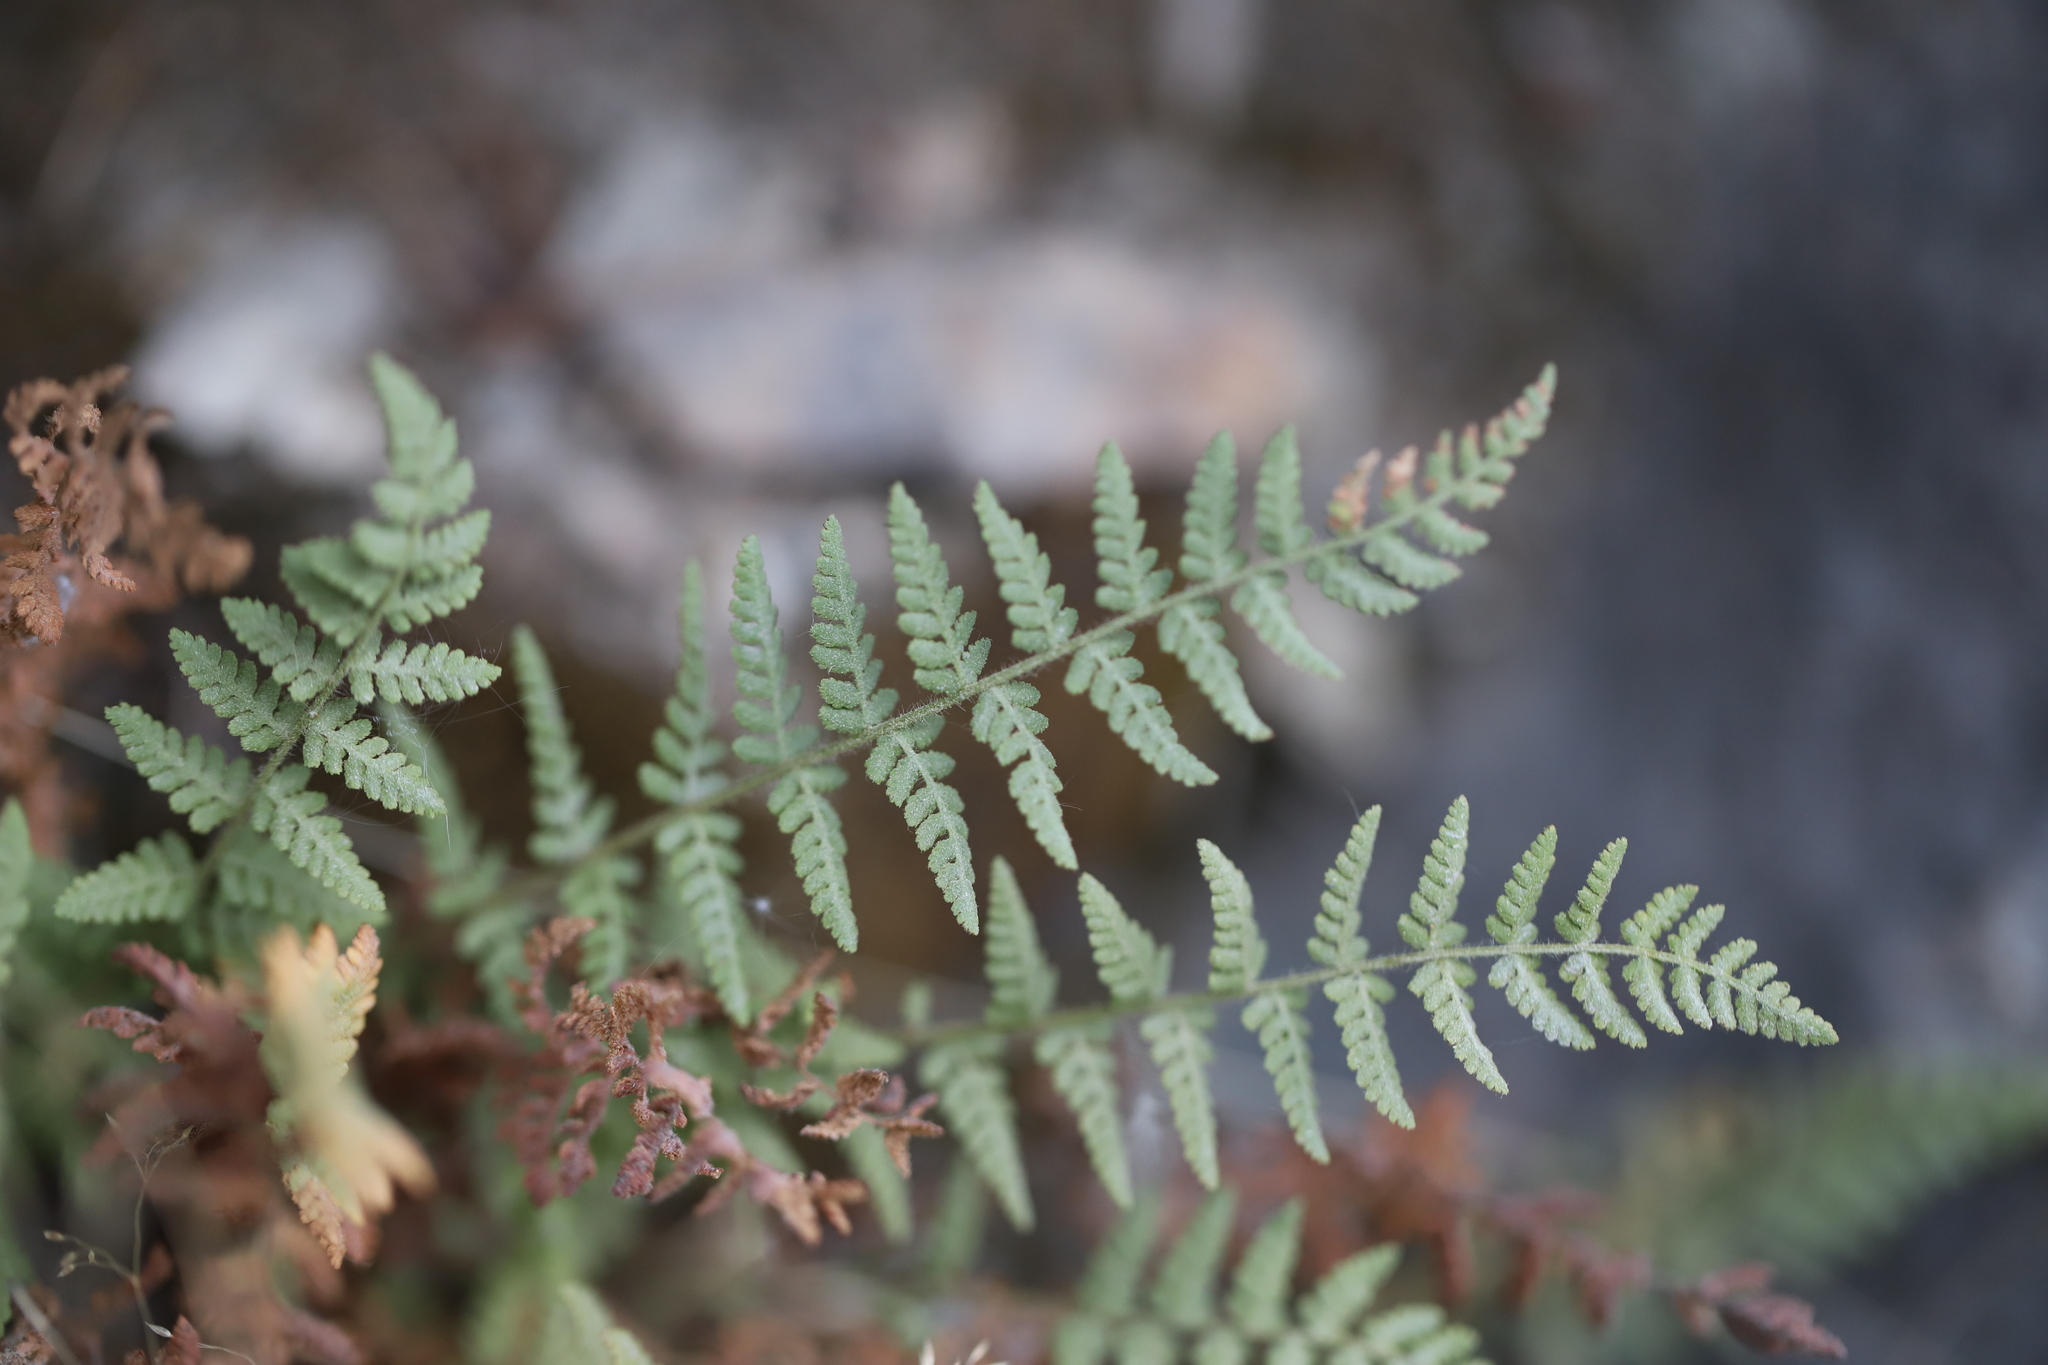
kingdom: Plantae
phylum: Tracheophyta
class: Polypodiopsida
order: Polypodiales
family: Woodsiaceae
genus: Physematium
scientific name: Physematium scopulinum
